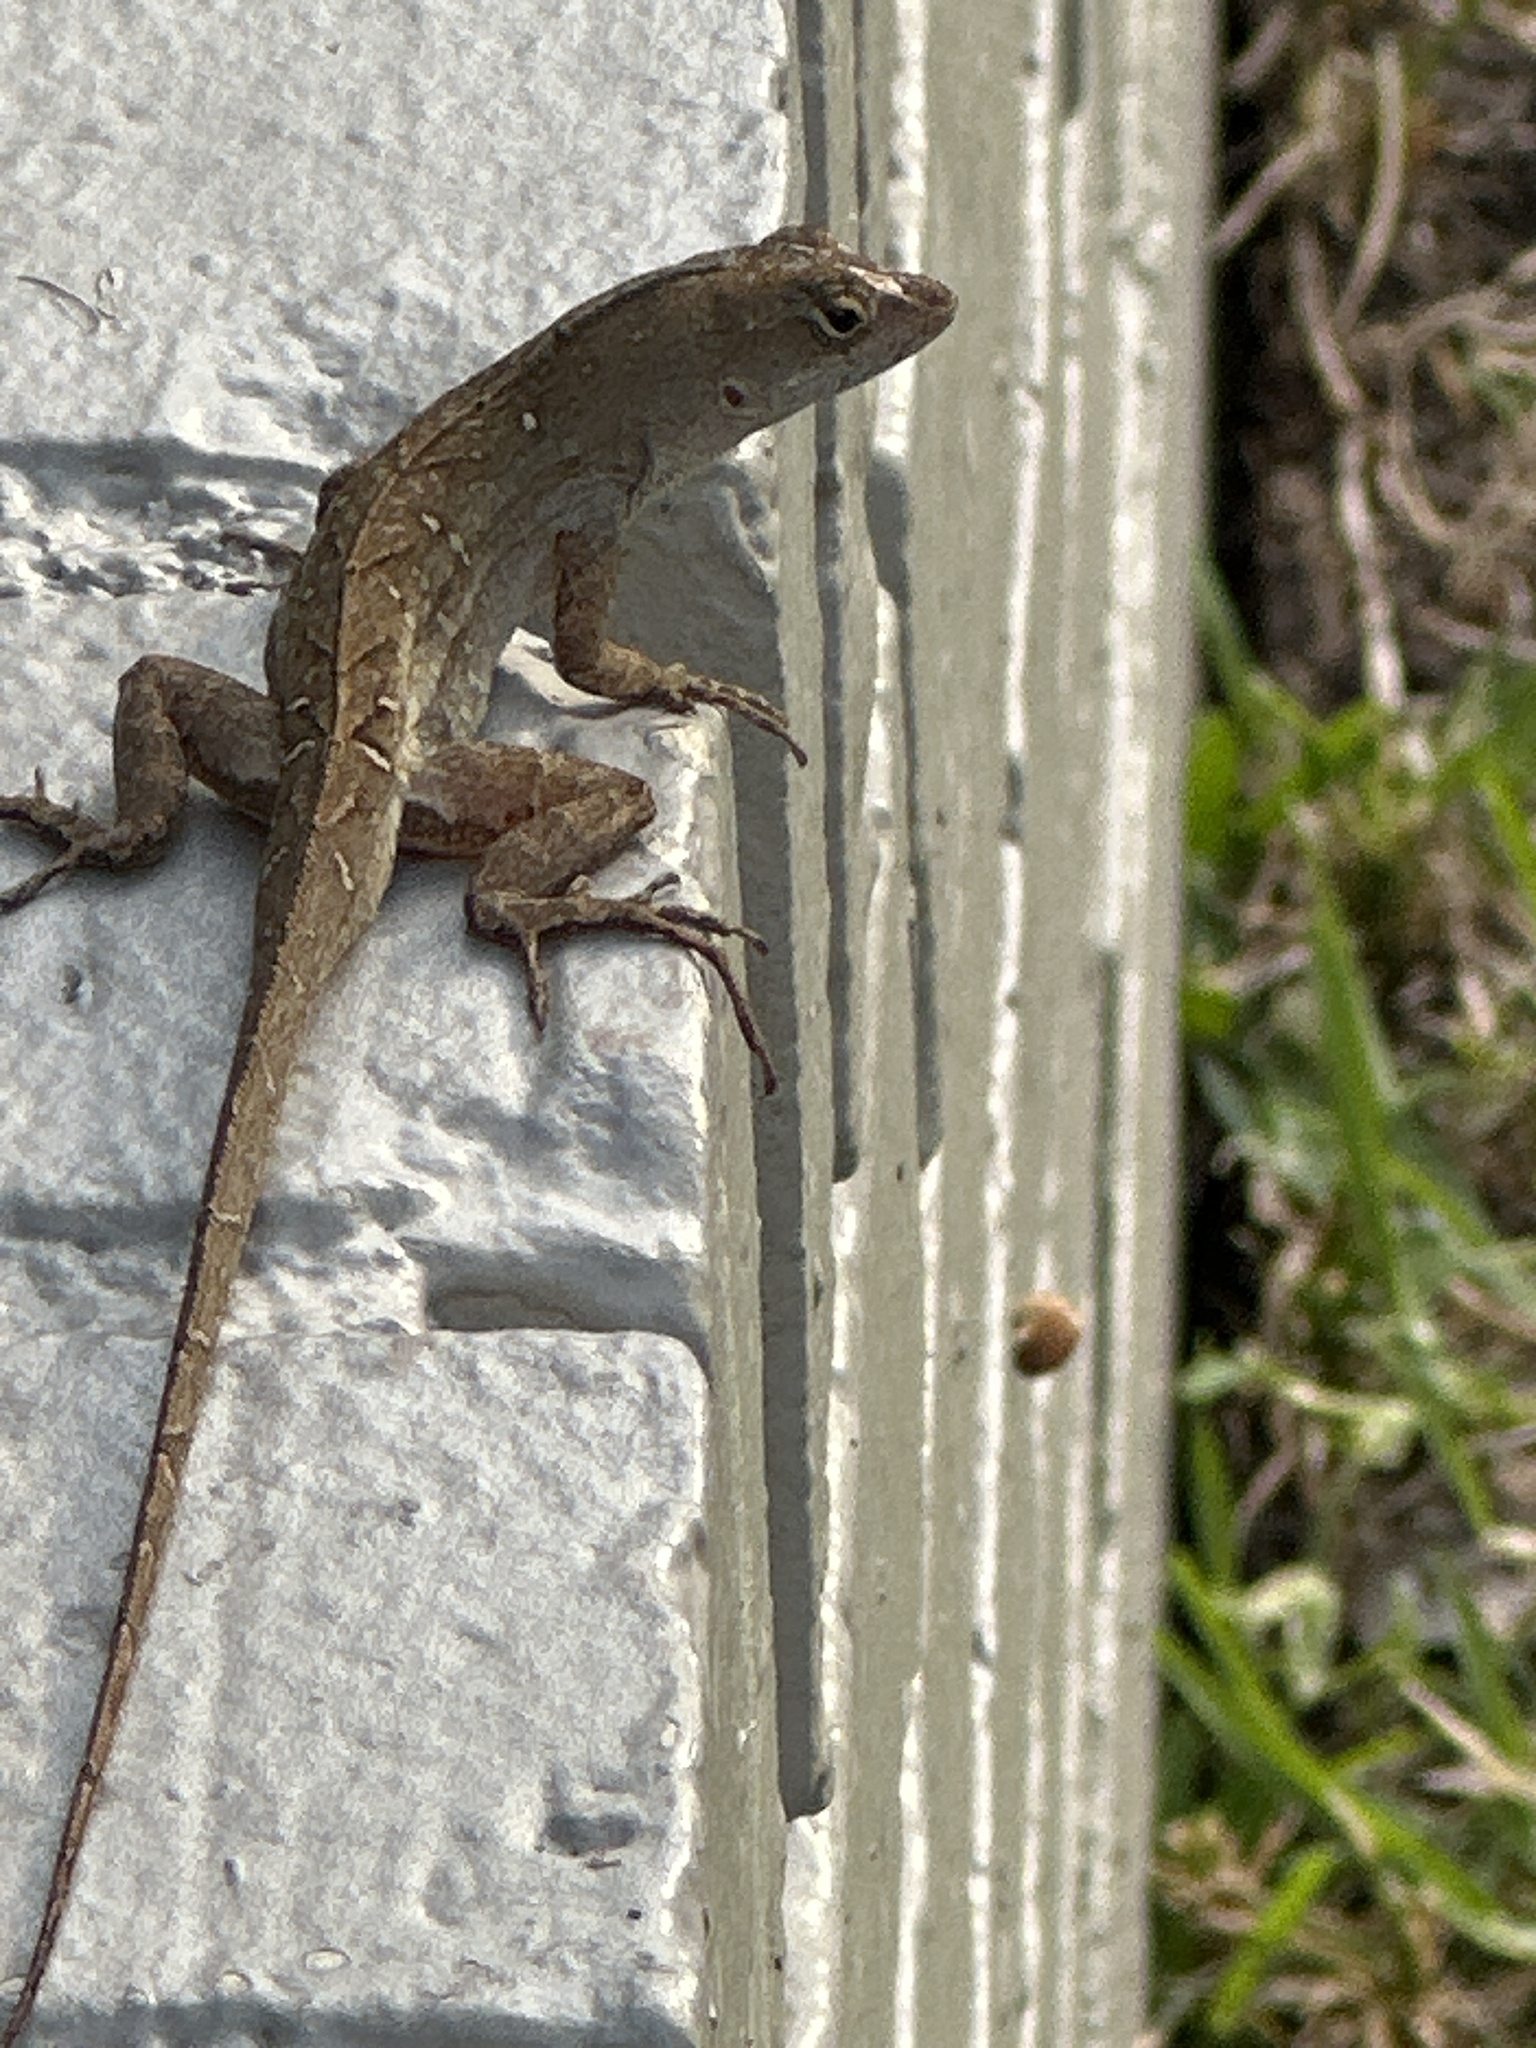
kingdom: Animalia
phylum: Chordata
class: Squamata
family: Dactyloidae
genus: Anolis
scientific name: Anolis sagrei
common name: Brown anole
